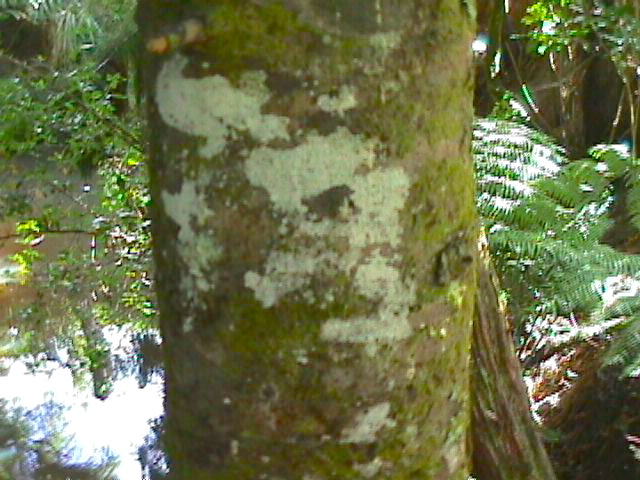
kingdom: Plantae
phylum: Tracheophyta
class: Pinopsida
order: Pinales
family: Phyllocladaceae
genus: Phyllocladus
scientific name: Phyllocladus trichomanoides
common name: Celery pine
